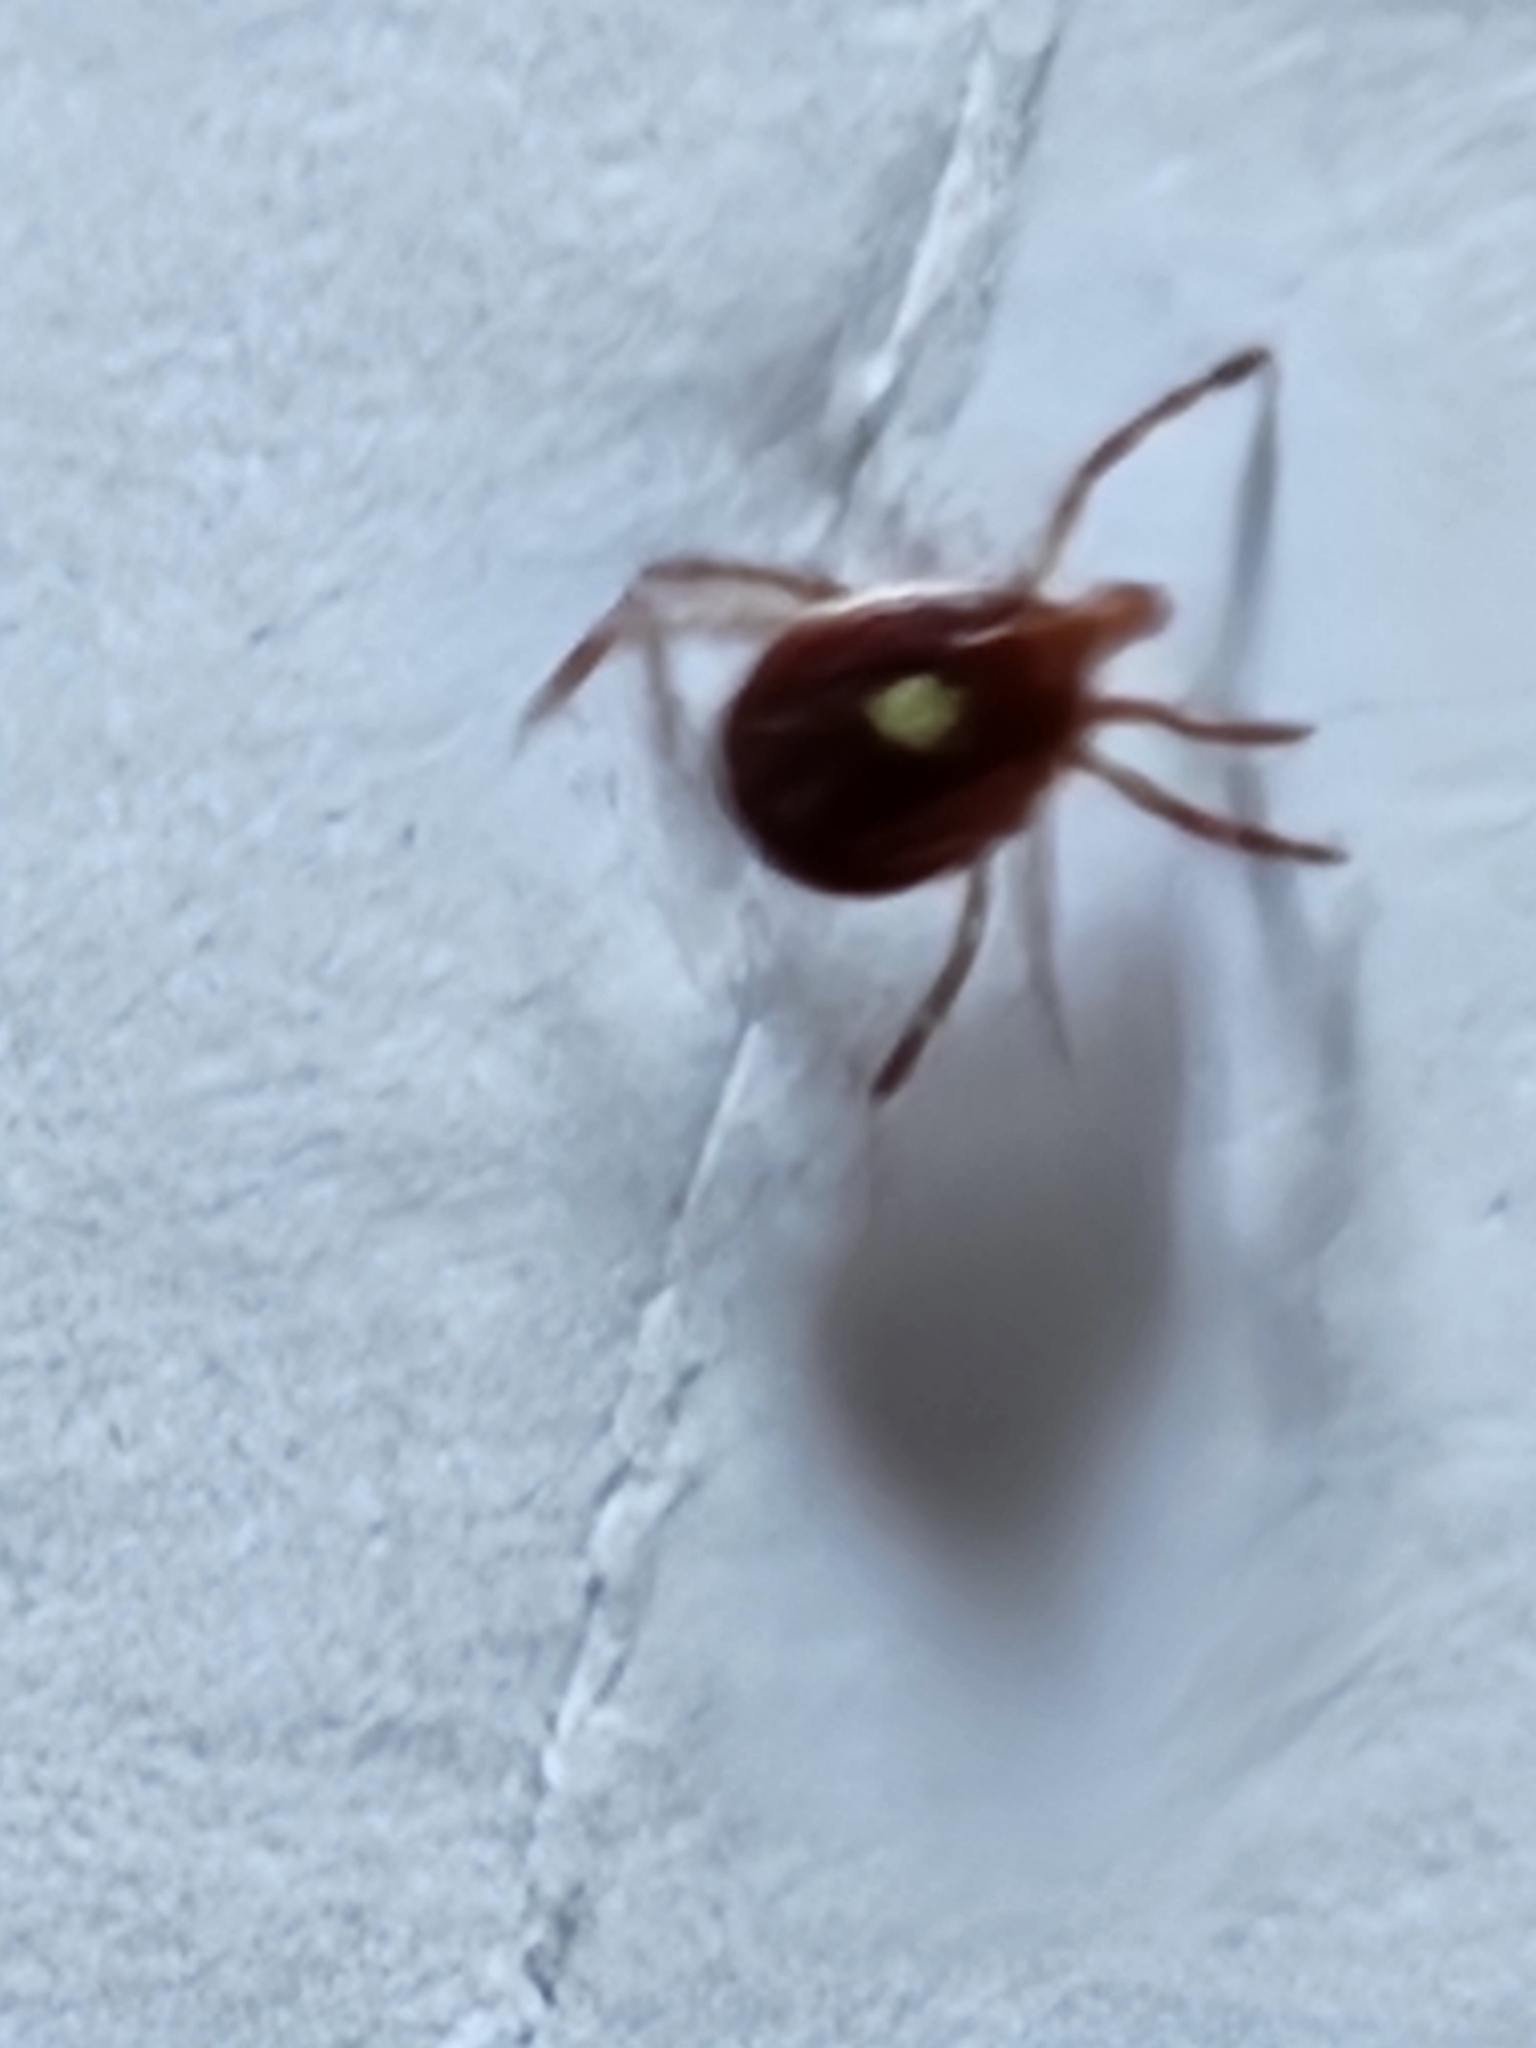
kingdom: Animalia
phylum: Arthropoda
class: Arachnida
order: Ixodida
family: Ixodidae
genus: Amblyomma
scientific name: Amblyomma americanum
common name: Lone star tick
